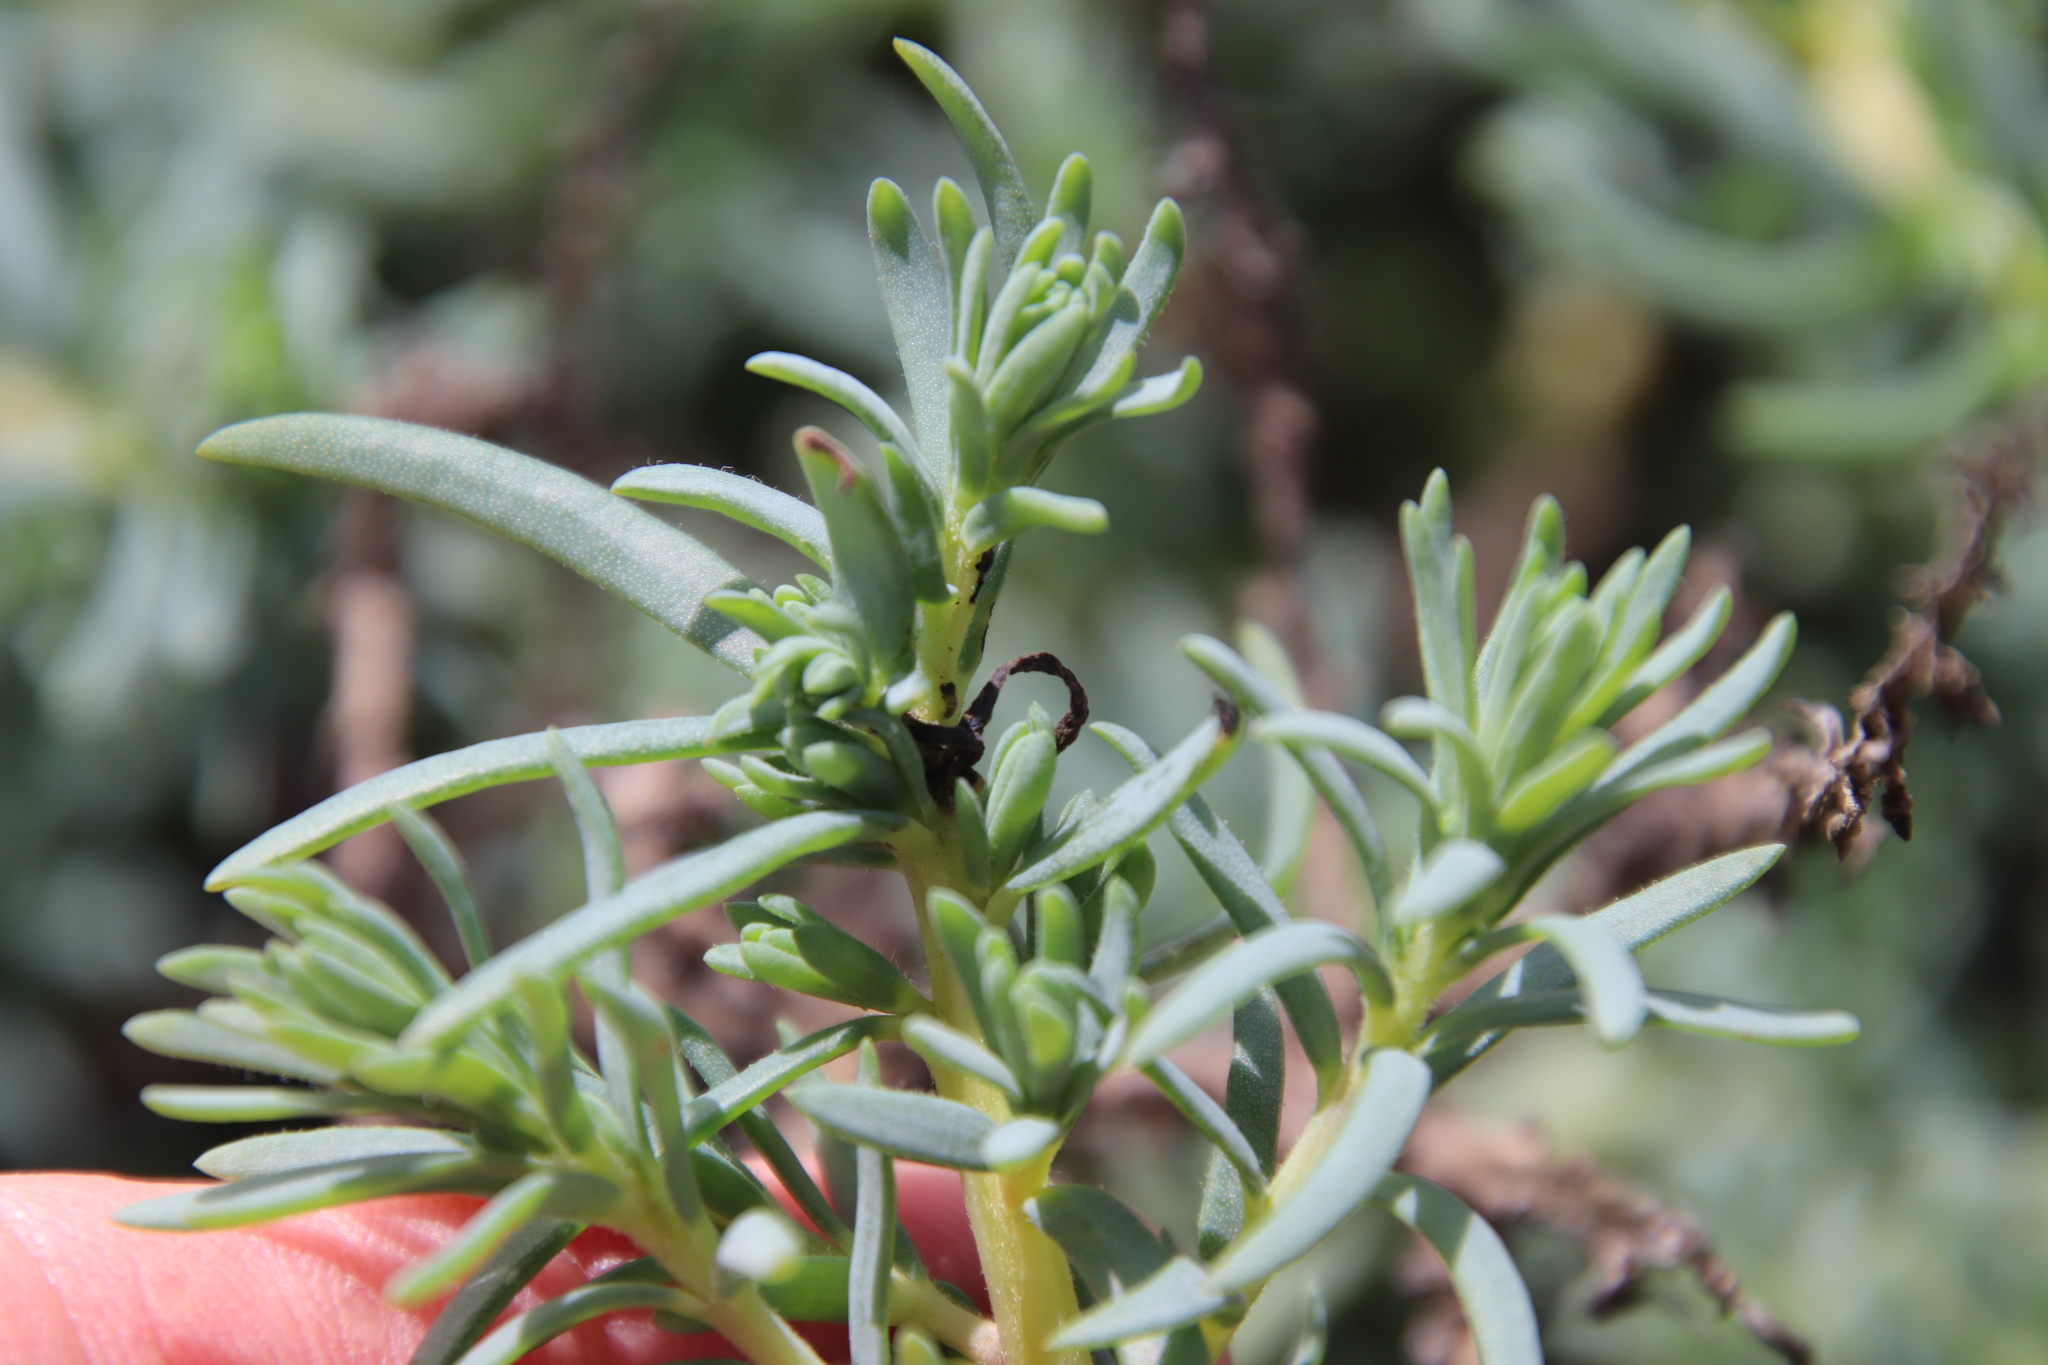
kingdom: Plantae
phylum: Tracheophyta
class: Magnoliopsida
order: Caryophyllales
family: Amaranthaceae
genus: Suaeda
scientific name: Suaeda taxifolia
